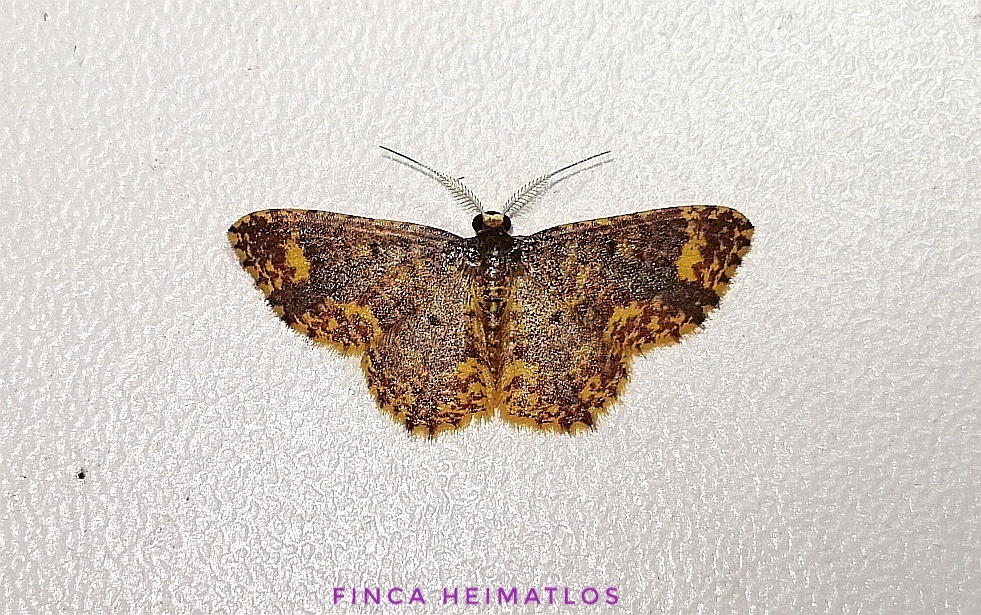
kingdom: Animalia
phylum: Arthropoda
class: Insecta
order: Lepidoptera
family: Geometridae
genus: Eois
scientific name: Eois lunifera
